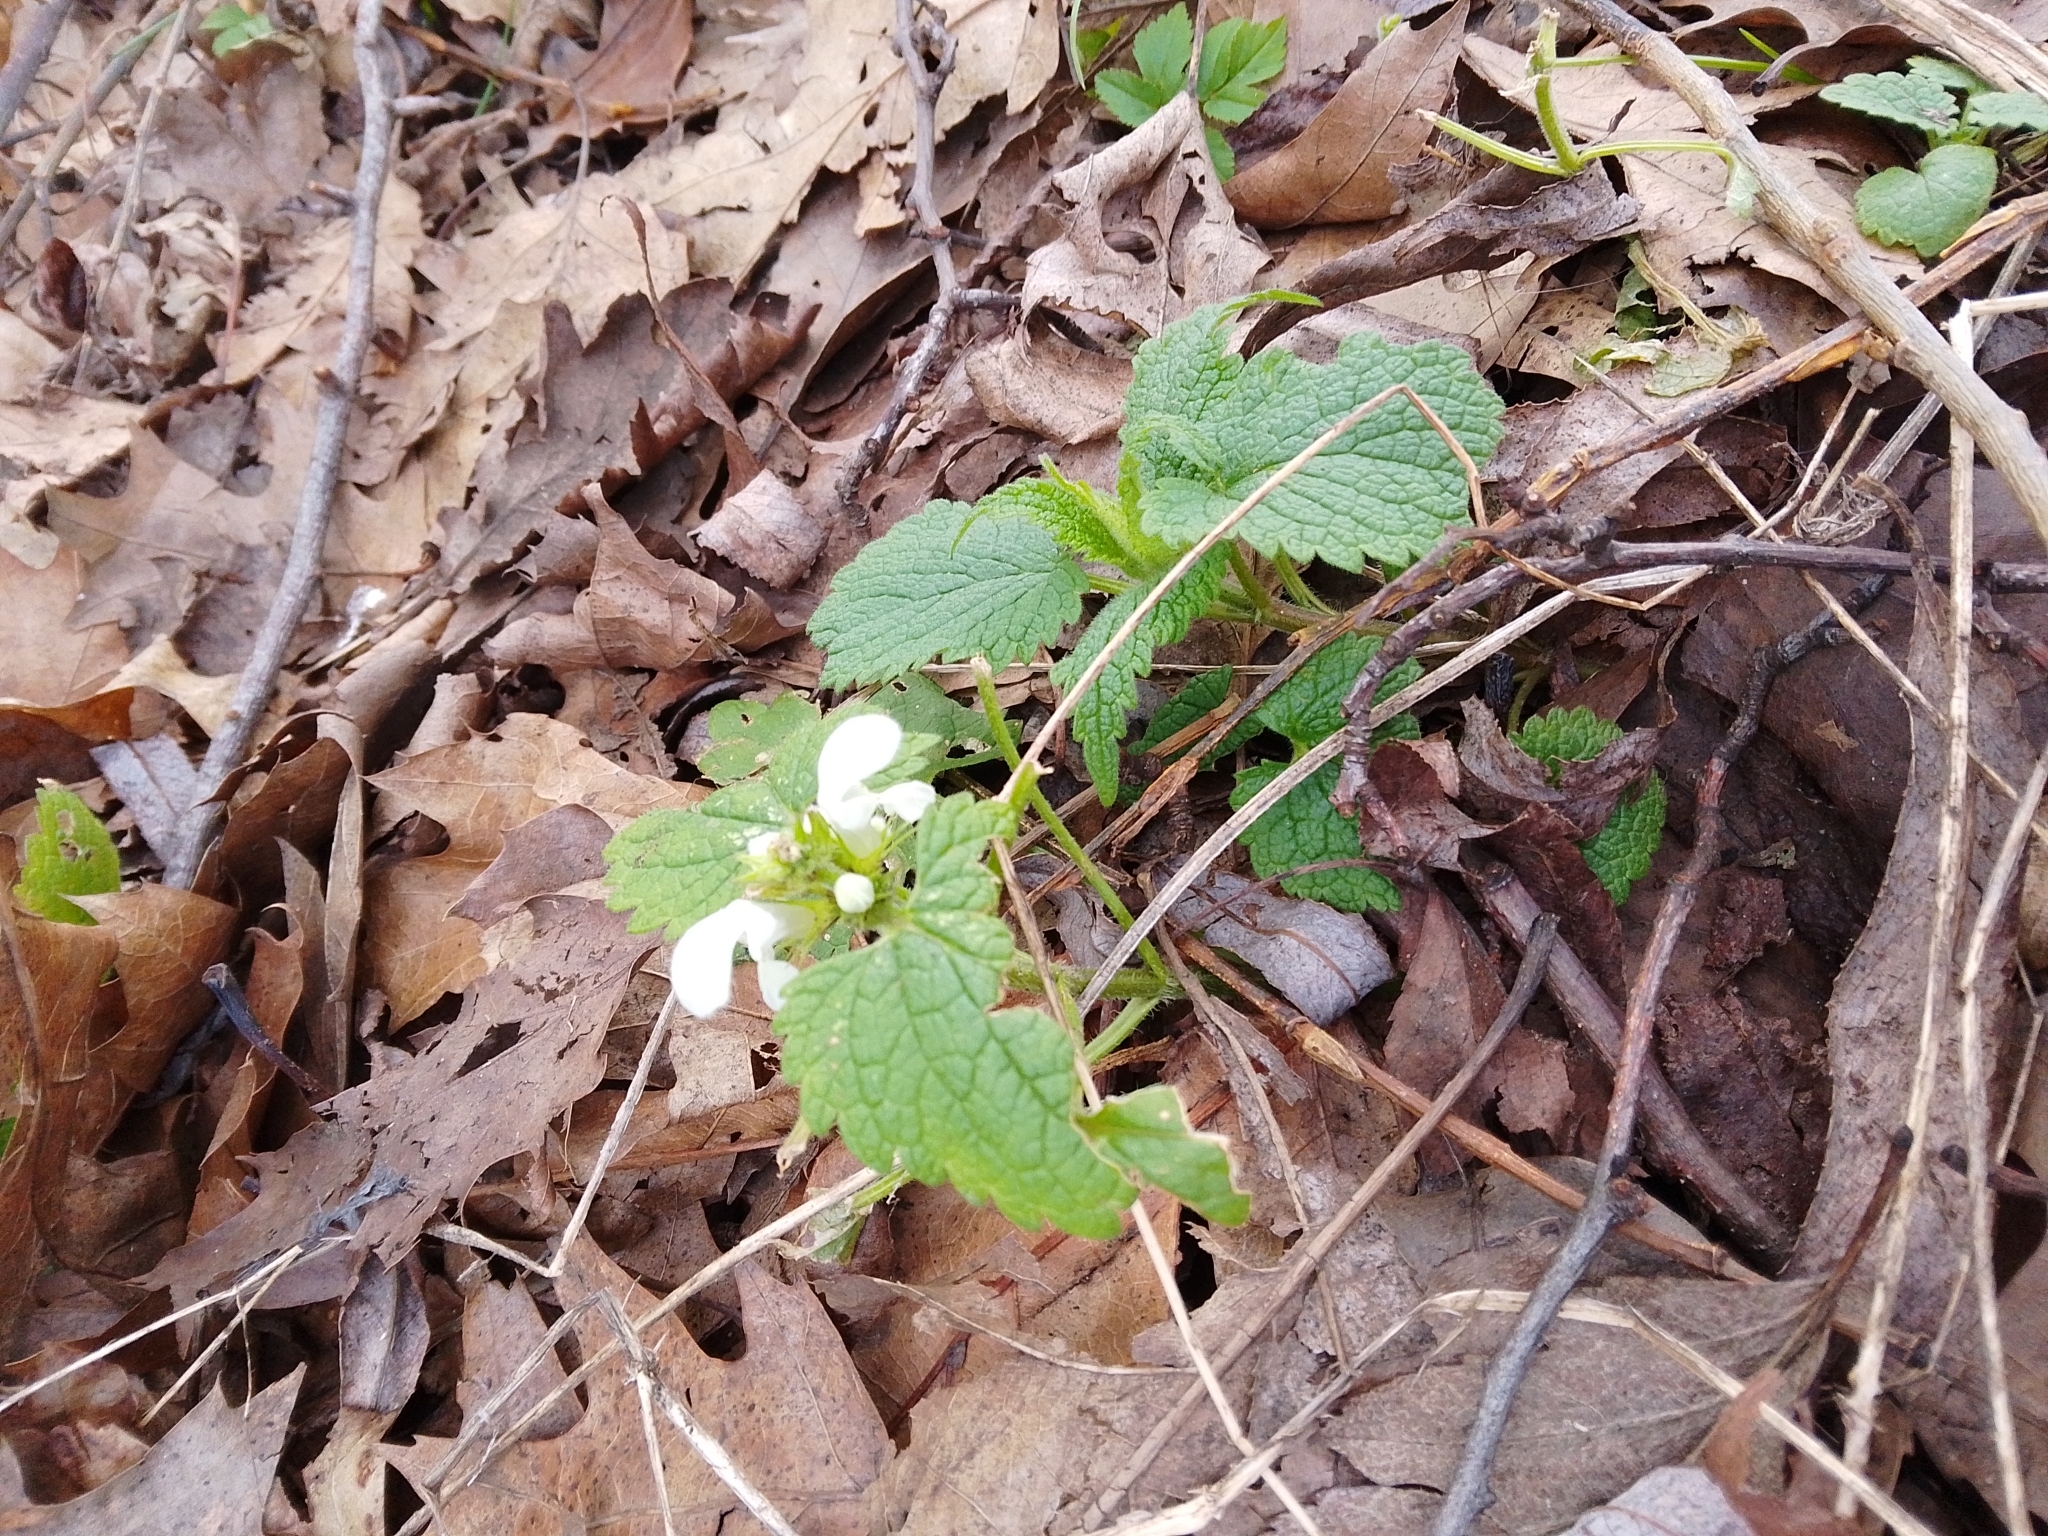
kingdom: Plantae
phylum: Tracheophyta
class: Magnoliopsida
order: Lamiales
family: Lamiaceae
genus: Lamium
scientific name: Lamium album
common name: White dead-nettle
